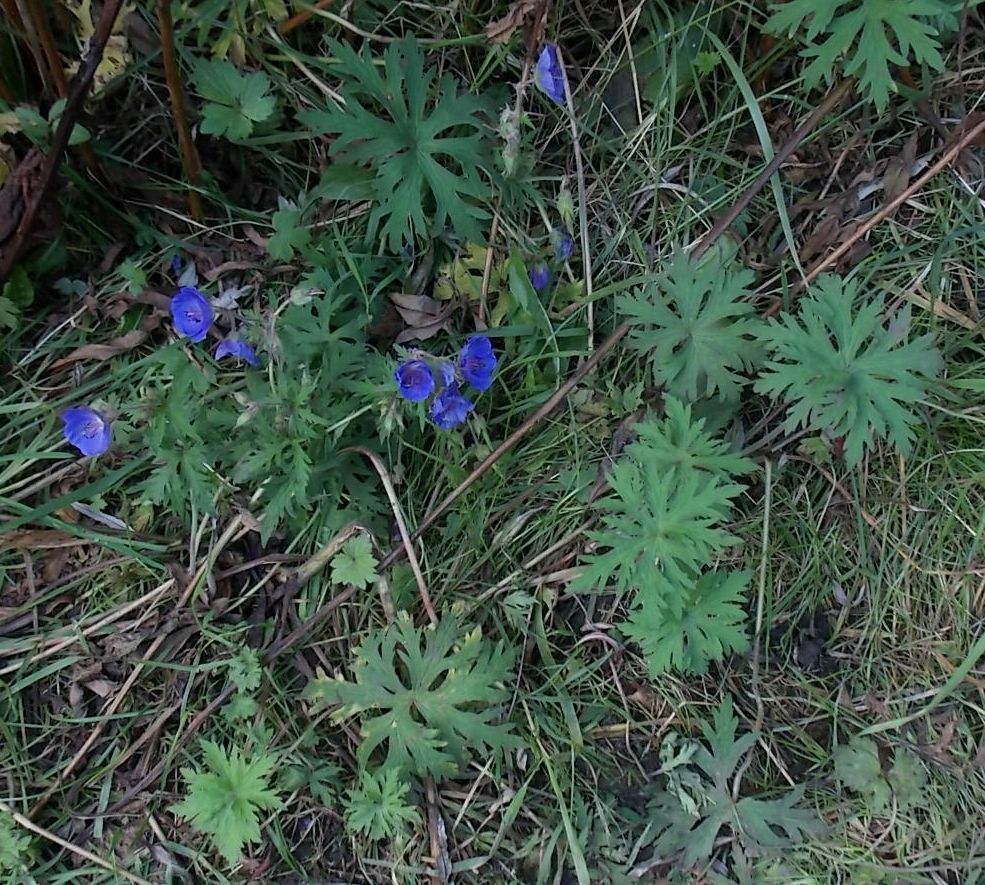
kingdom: Plantae
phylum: Tracheophyta
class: Magnoliopsida
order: Geraniales
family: Geraniaceae
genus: Geranium
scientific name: Geranium pratense
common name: Meadow crane's-bill
